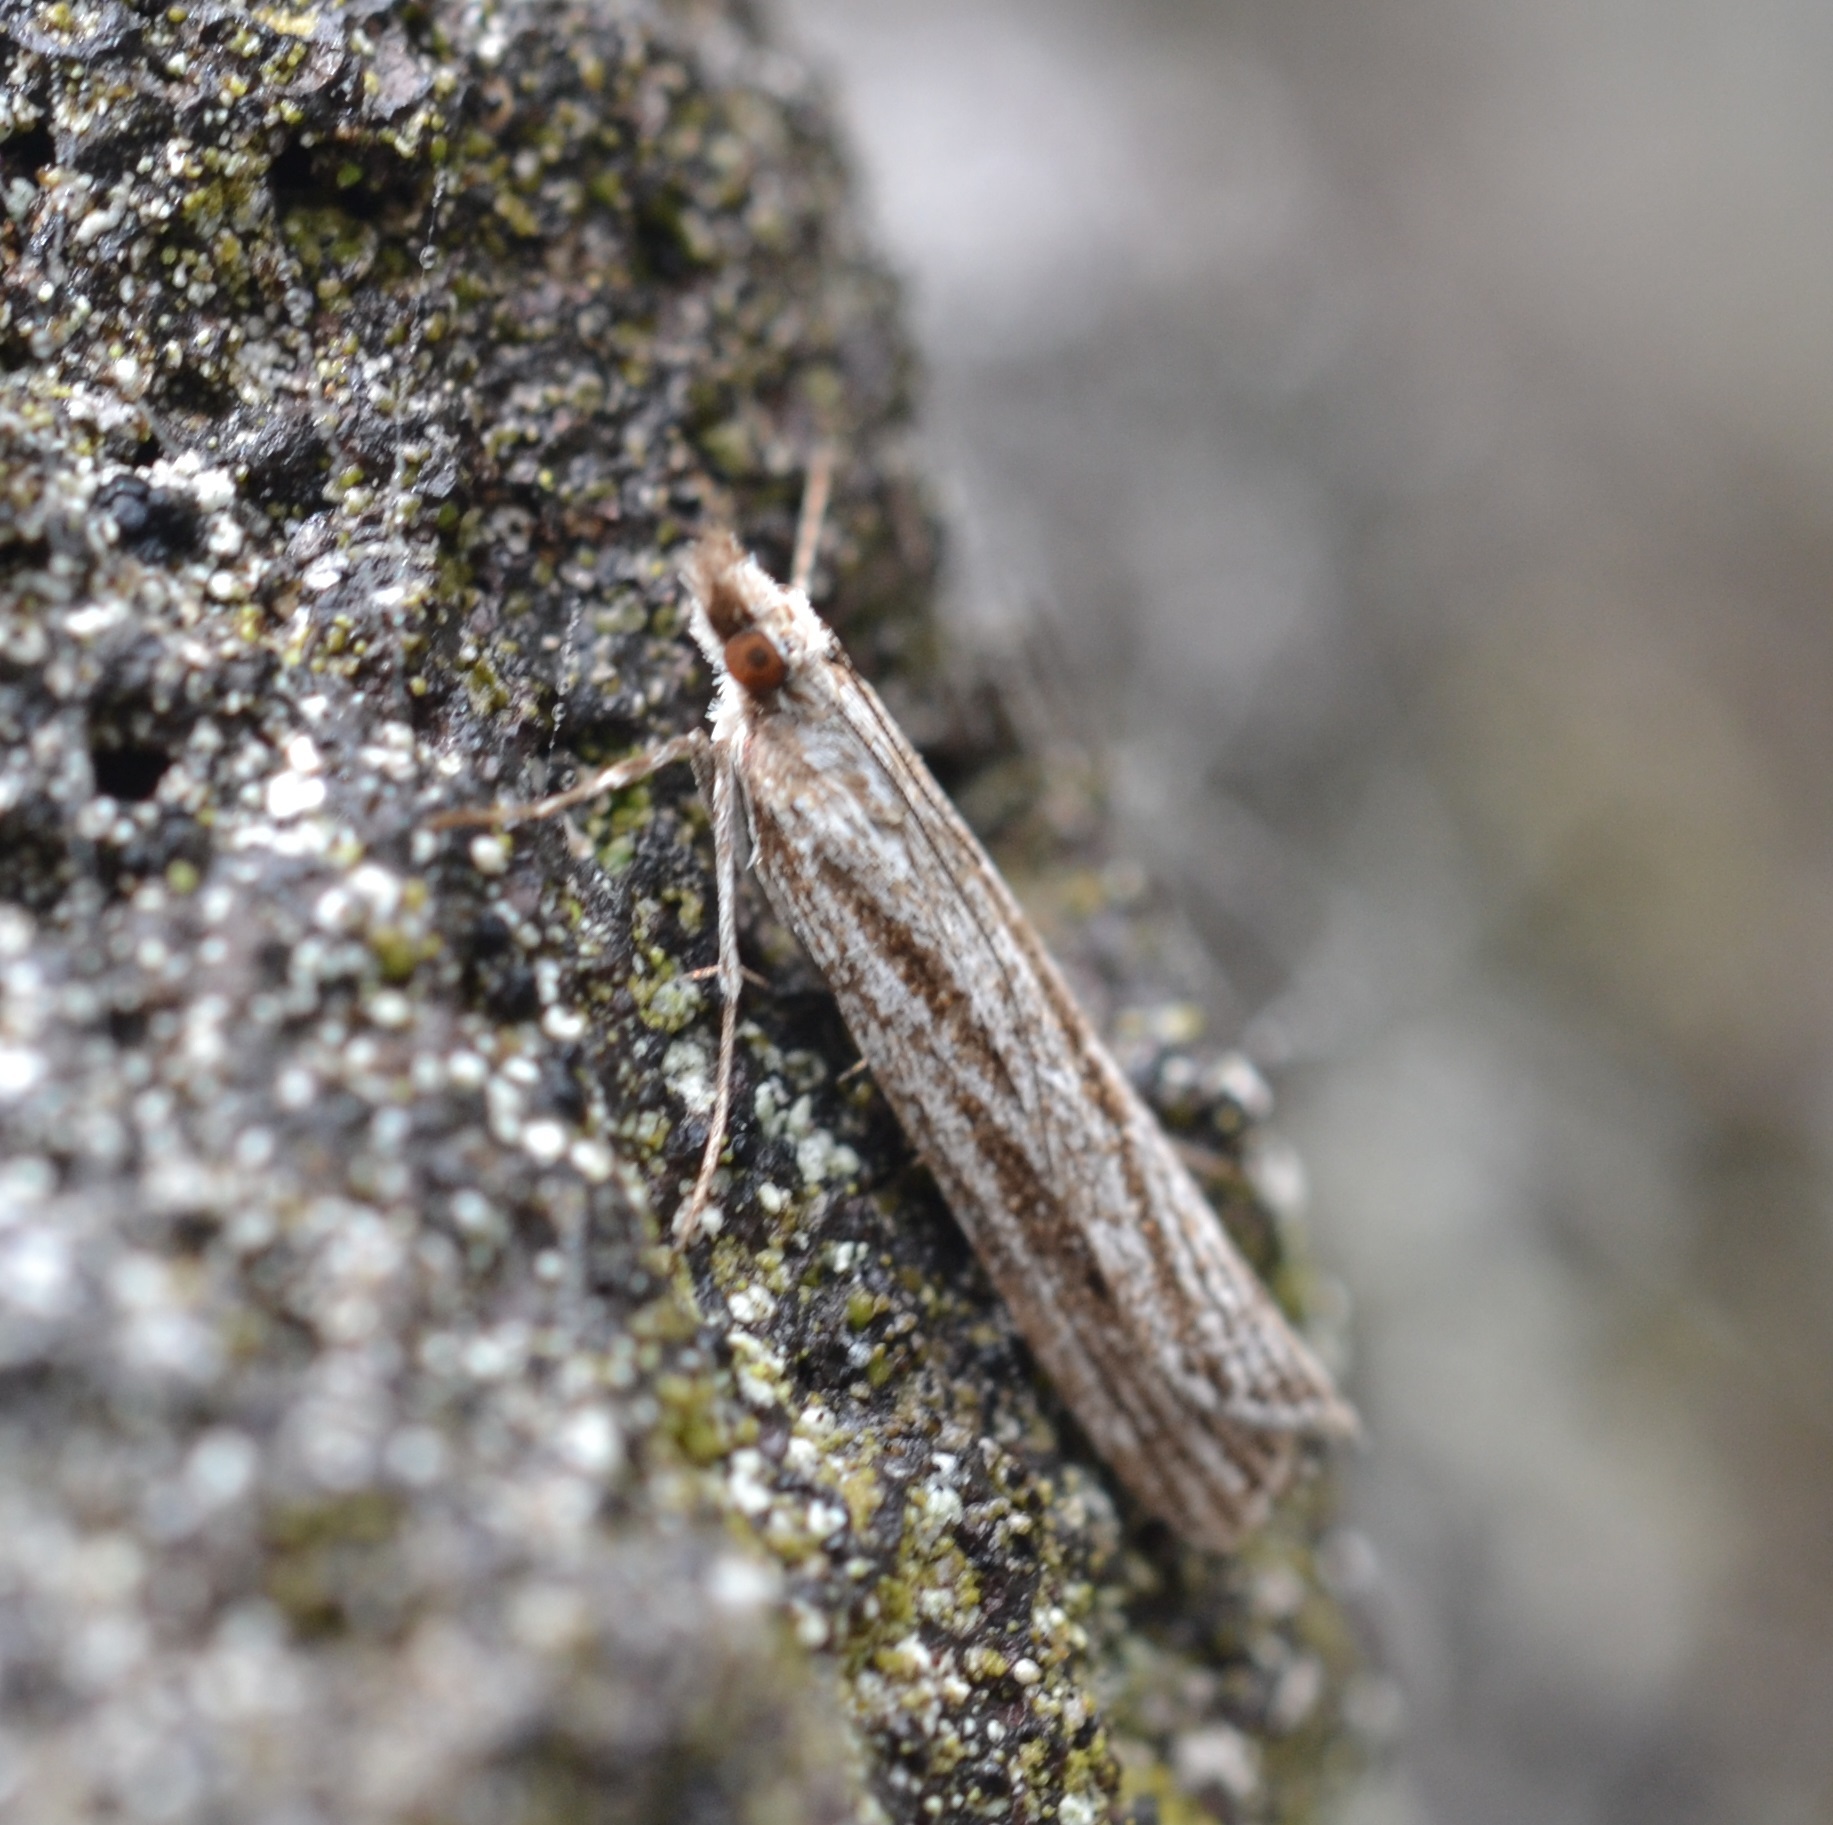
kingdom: Animalia
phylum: Arthropoda
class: Insecta
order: Lepidoptera
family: Crambidae
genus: Eudonia
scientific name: Eudonia venosa
